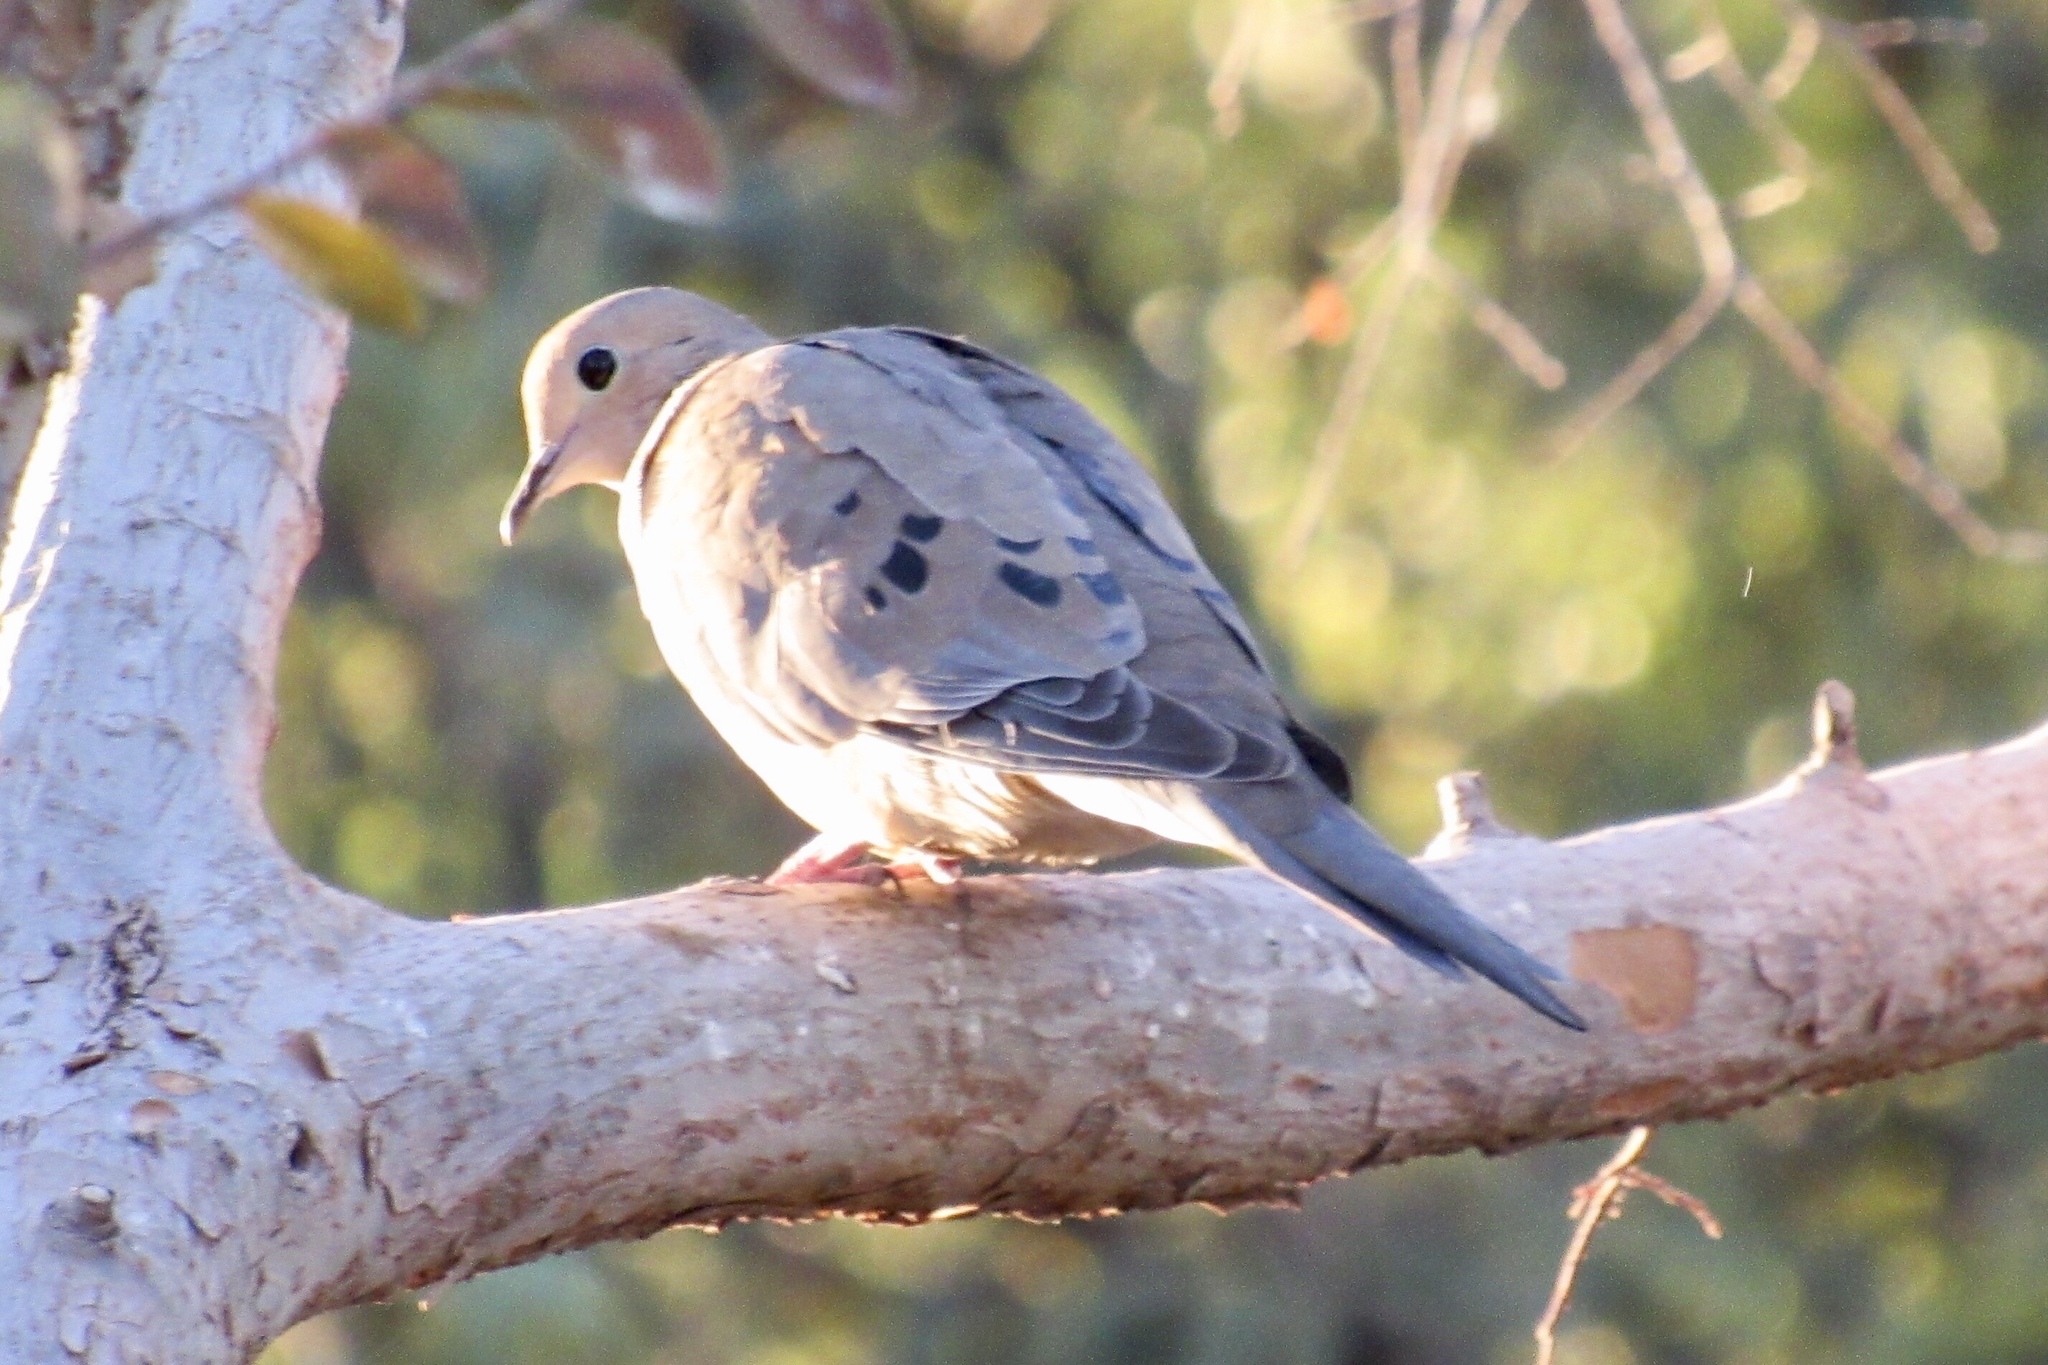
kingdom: Animalia
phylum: Chordata
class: Aves
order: Columbiformes
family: Columbidae
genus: Zenaida
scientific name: Zenaida macroura
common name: Mourning dove
